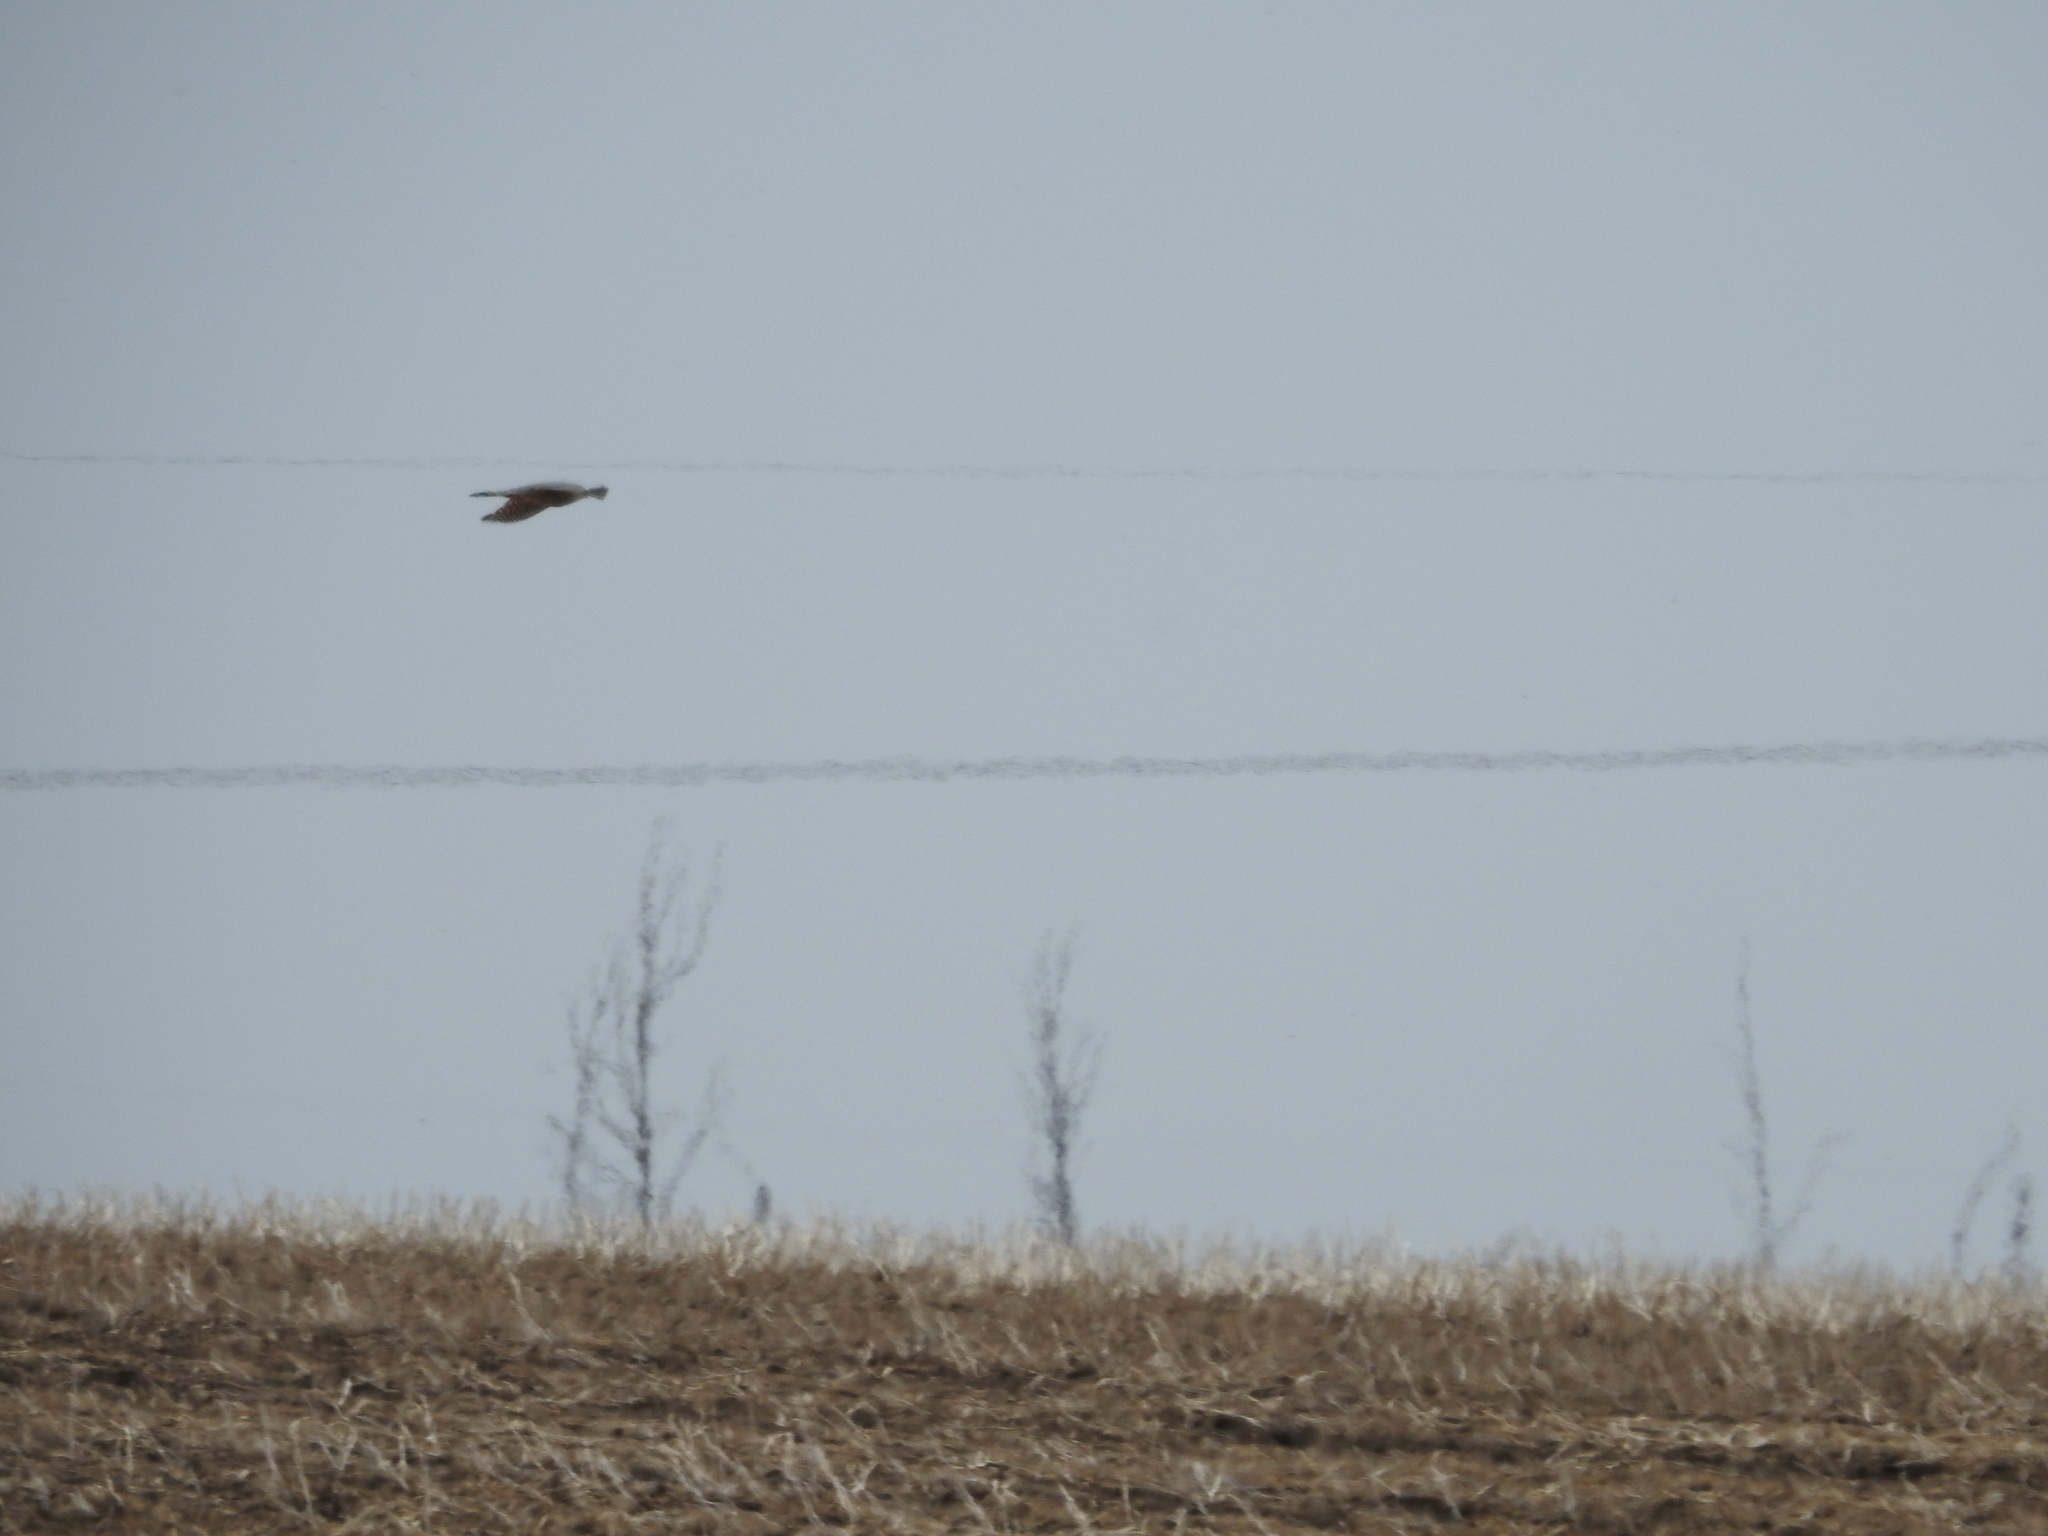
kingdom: Animalia
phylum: Chordata
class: Aves
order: Falconiformes
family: Falconidae
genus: Falco
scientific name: Falco columbarius
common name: Merlin
